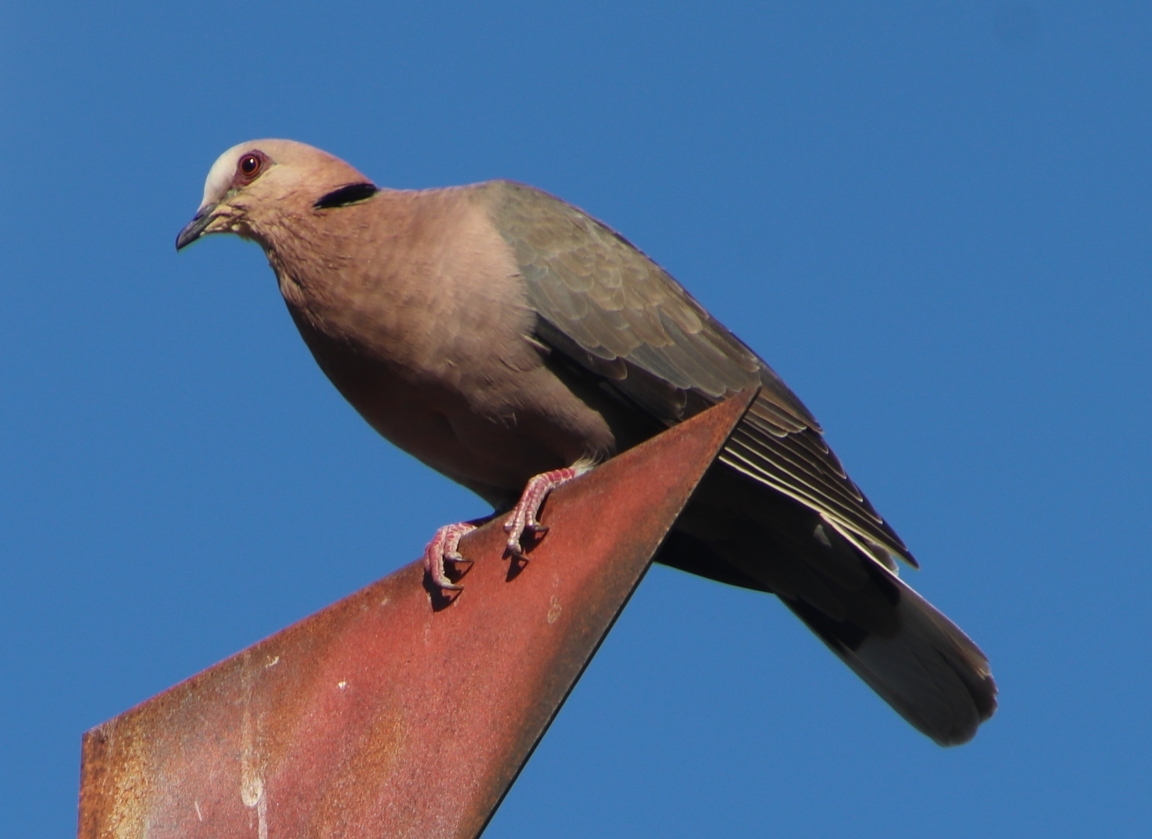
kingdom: Animalia
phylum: Chordata
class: Aves
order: Columbiformes
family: Columbidae
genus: Streptopelia
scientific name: Streptopelia semitorquata
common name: Red-eyed dove
